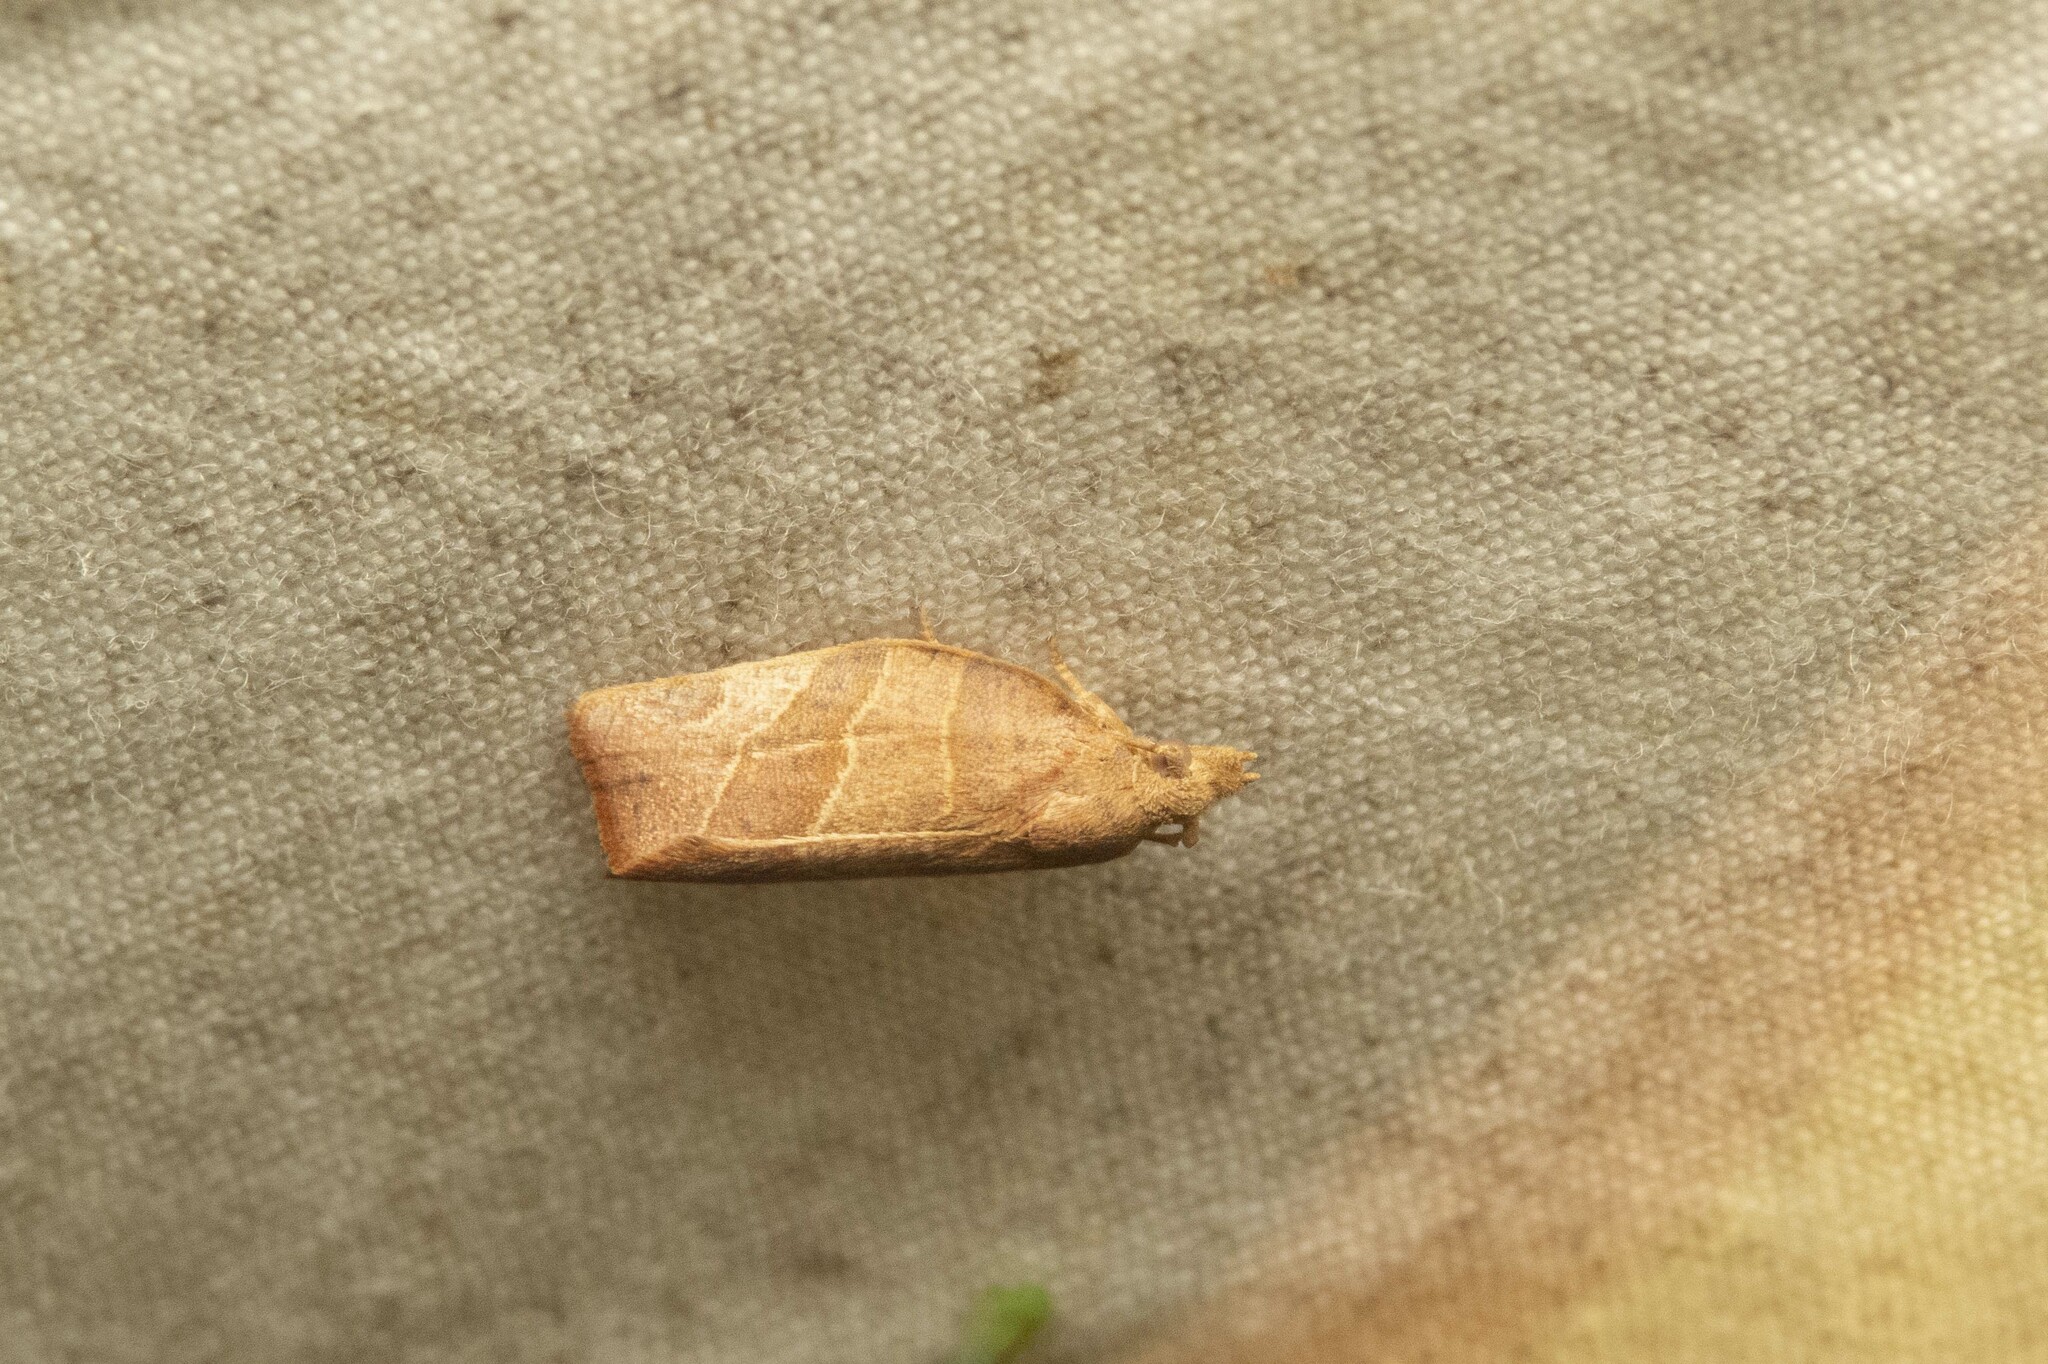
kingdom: Animalia
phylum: Arthropoda
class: Insecta
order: Lepidoptera
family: Tortricidae
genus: Pandemis
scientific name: Pandemis limitata
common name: Three-lined leafroller moth
